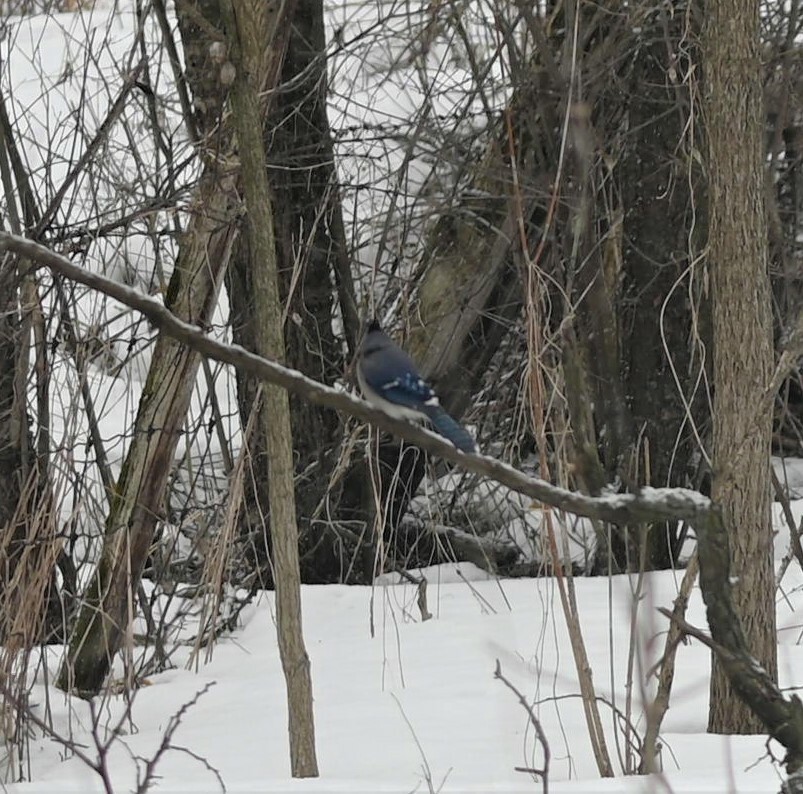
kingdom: Animalia
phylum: Chordata
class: Aves
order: Passeriformes
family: Corvidae
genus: Cyanocitta
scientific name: Cyanocitta cristata
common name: Blue jay
